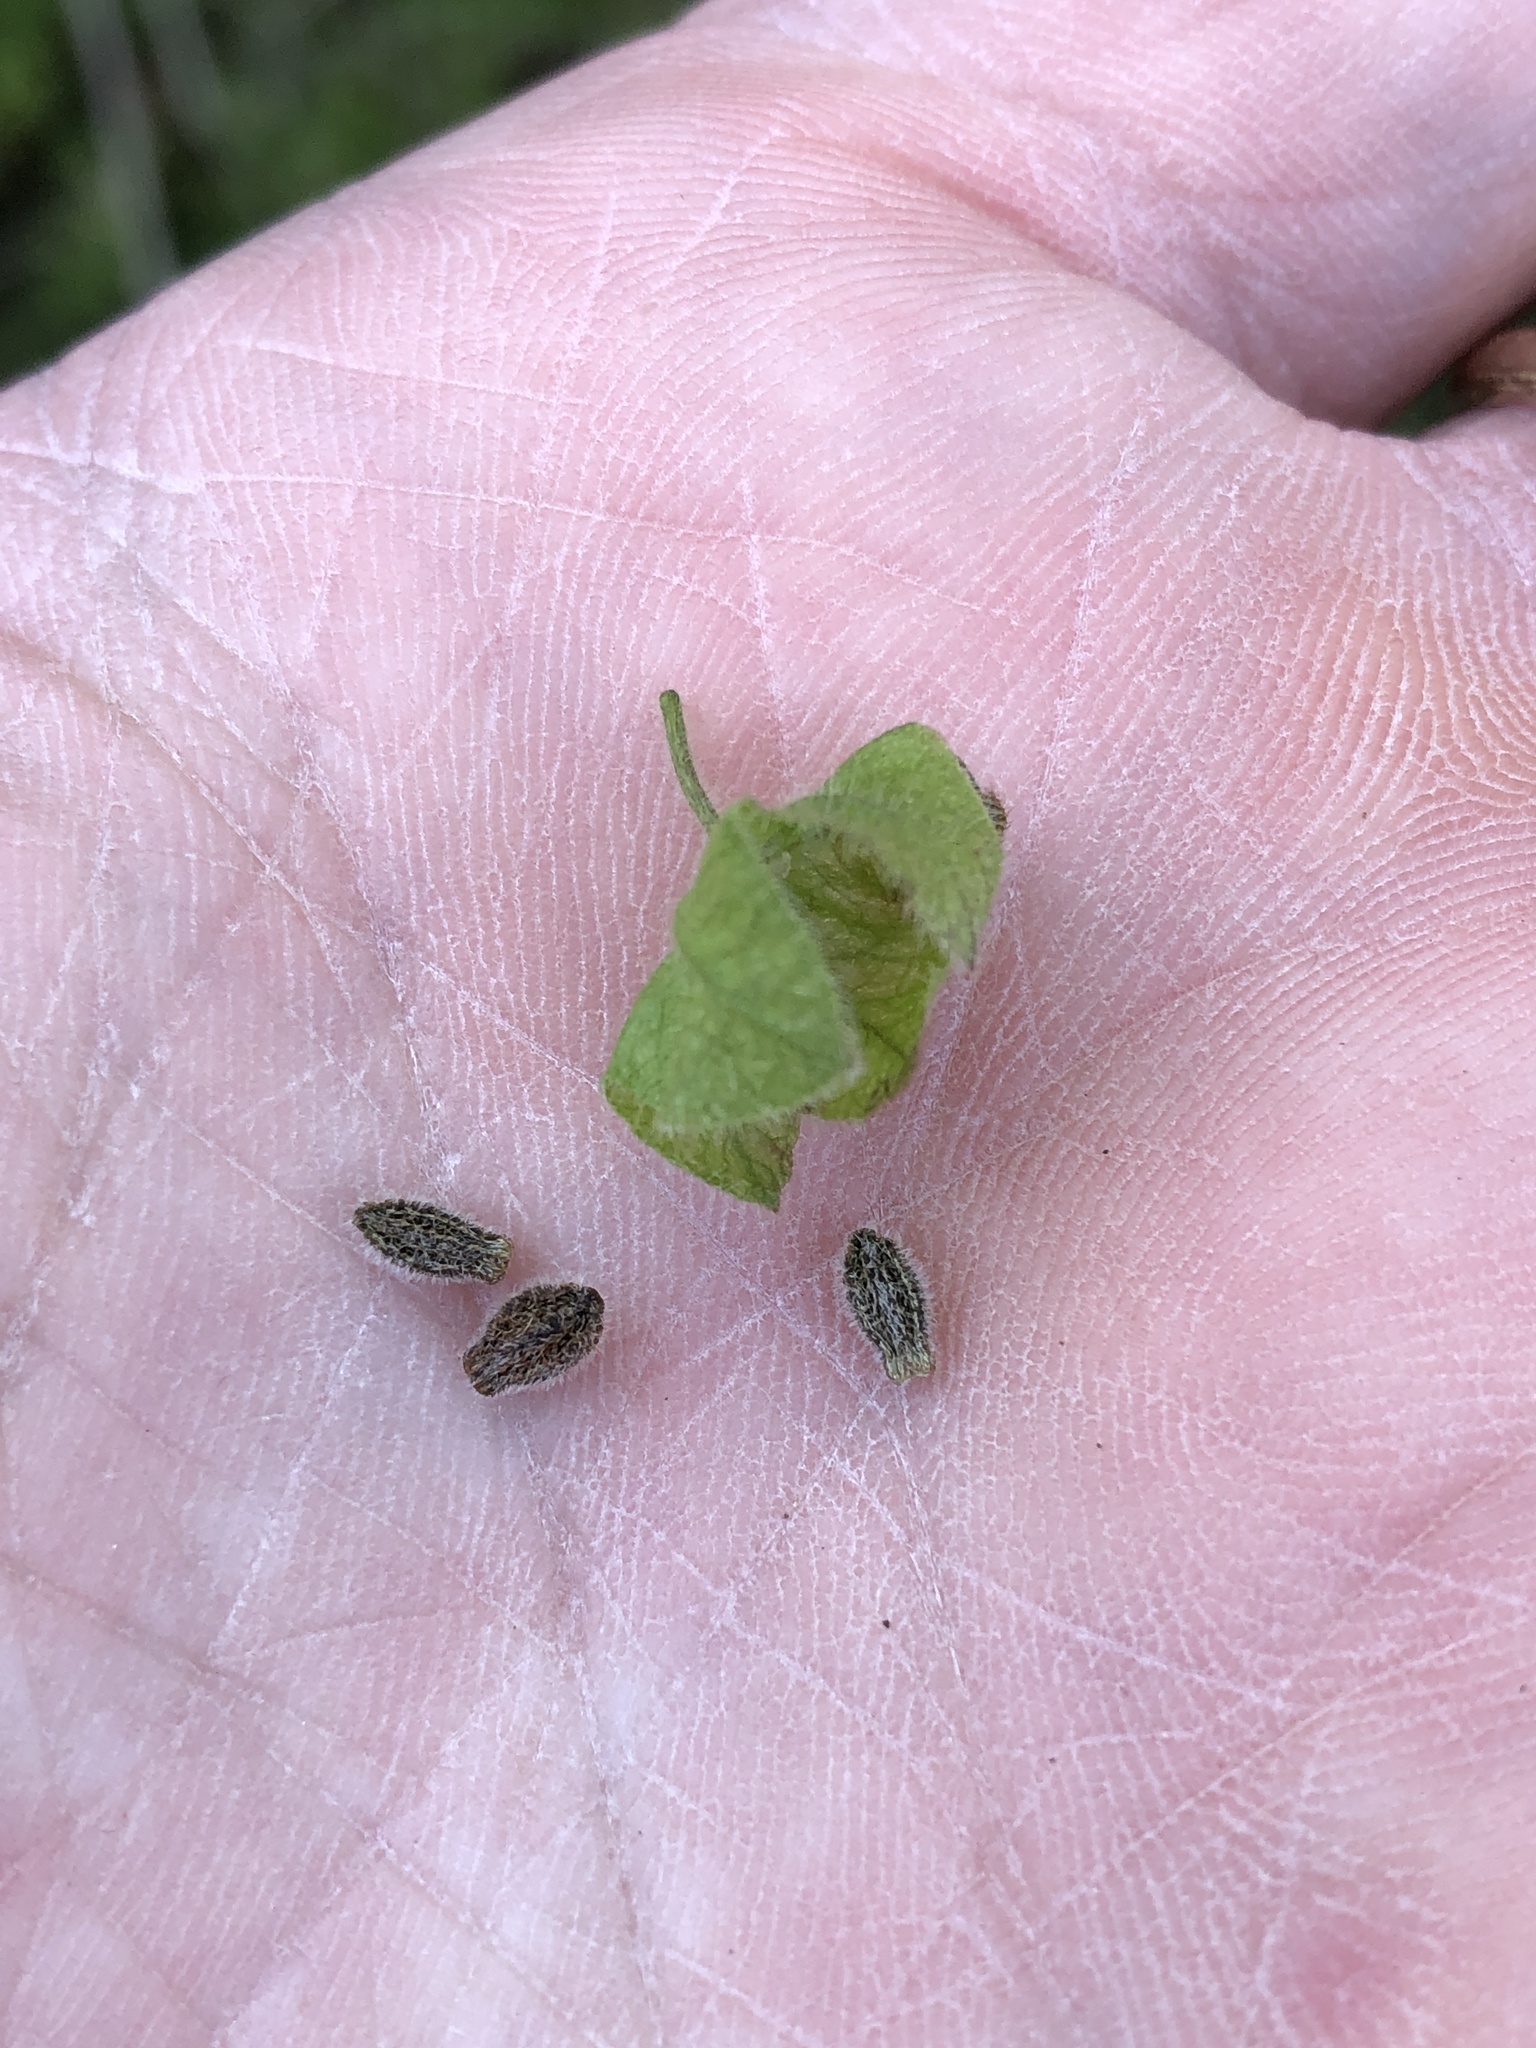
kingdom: Plantae
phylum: Tracheophyta
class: Magnoliopsida
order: Caryophyllales
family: Nyctaginaceae
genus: Mirabilis
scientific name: Mirabilis nyctaginea
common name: Umbrella wort
